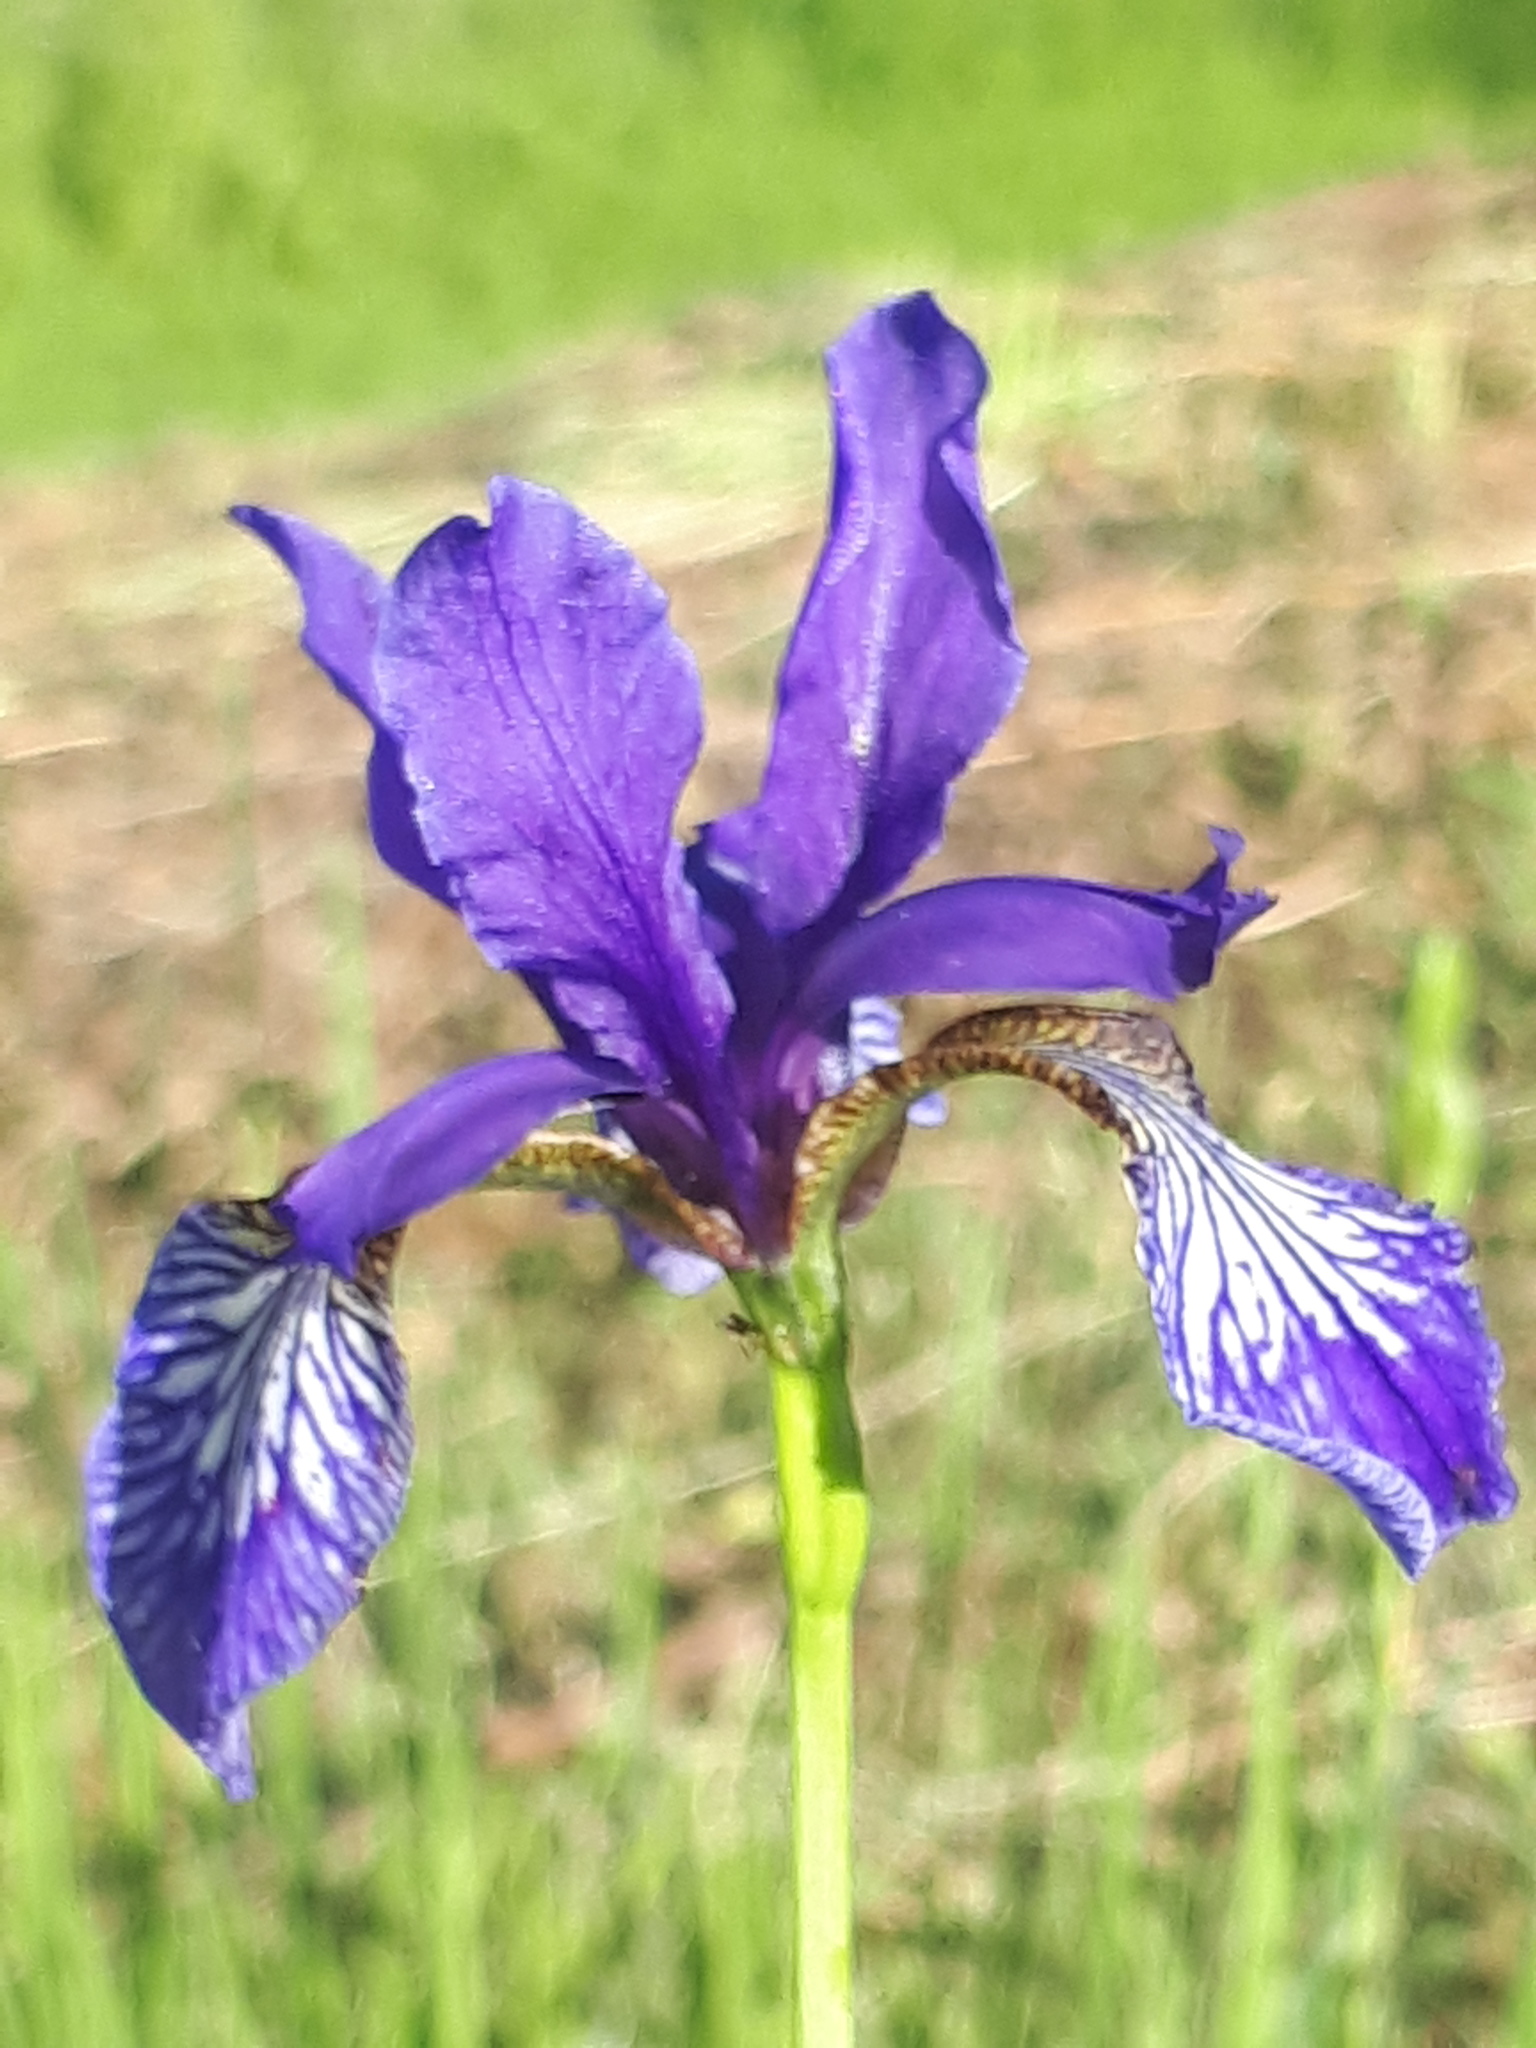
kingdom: Plantae
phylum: Tracheophyta
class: Liliopsida
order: Asparagales
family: Iridaceae
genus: Iris
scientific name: Iris sibirica
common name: Siberian iris
